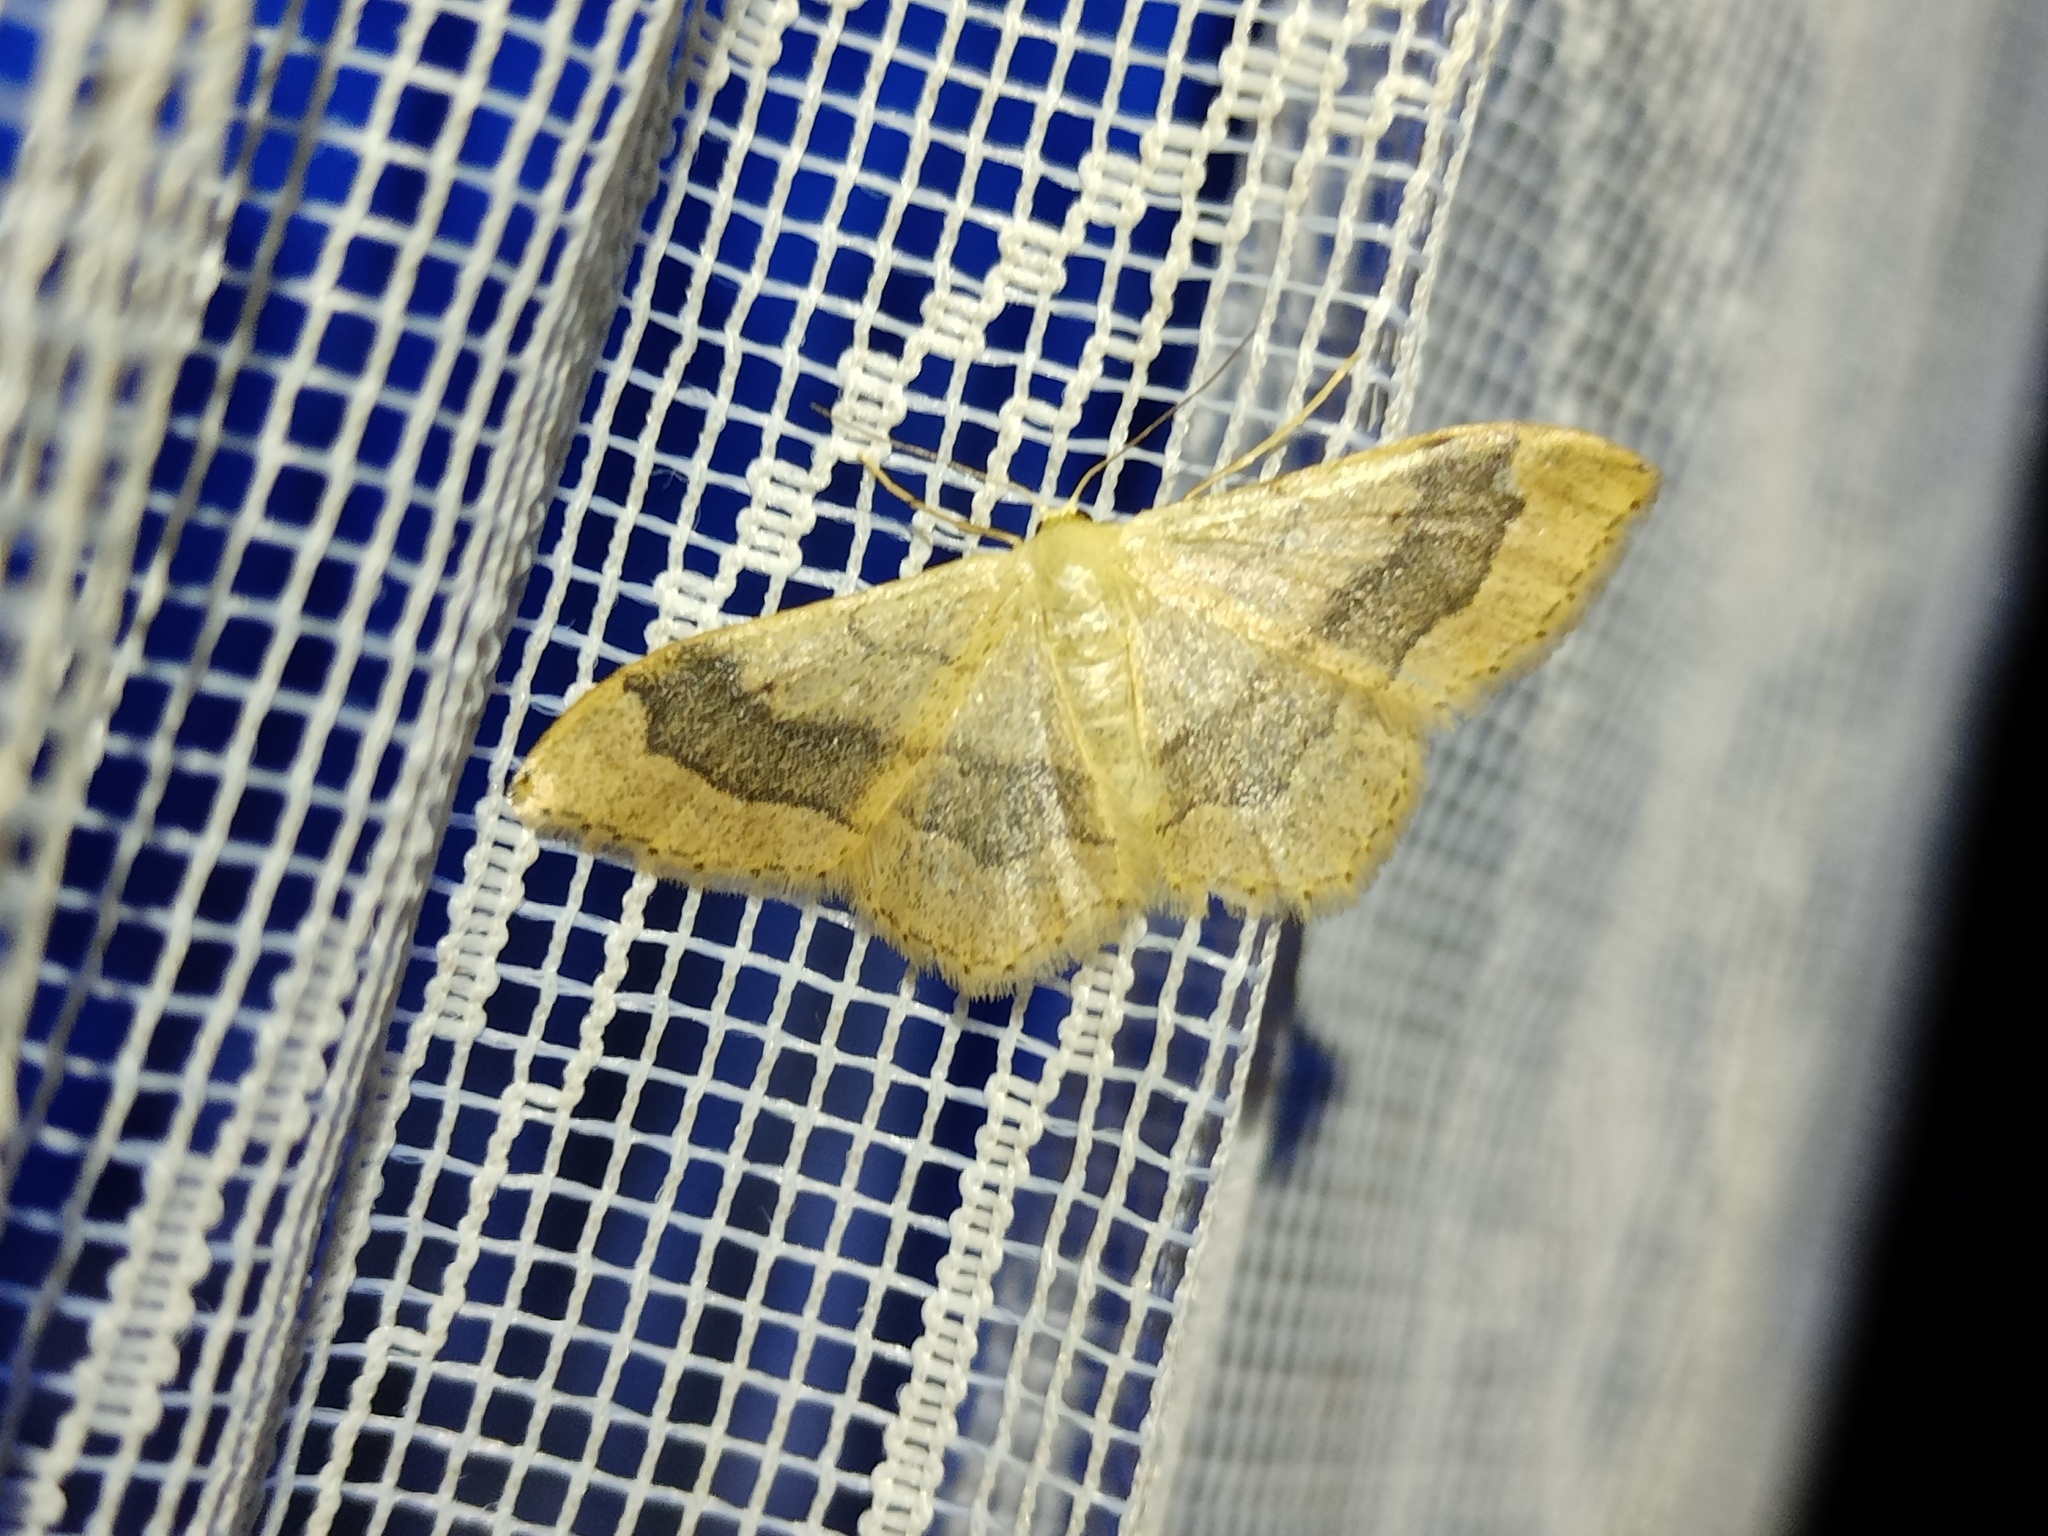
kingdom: Animalia
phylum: Arthropoda
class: Insecta
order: Lepidoptera
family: Geometridae
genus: Idaea
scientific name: Idaea aversata
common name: Riband wave
